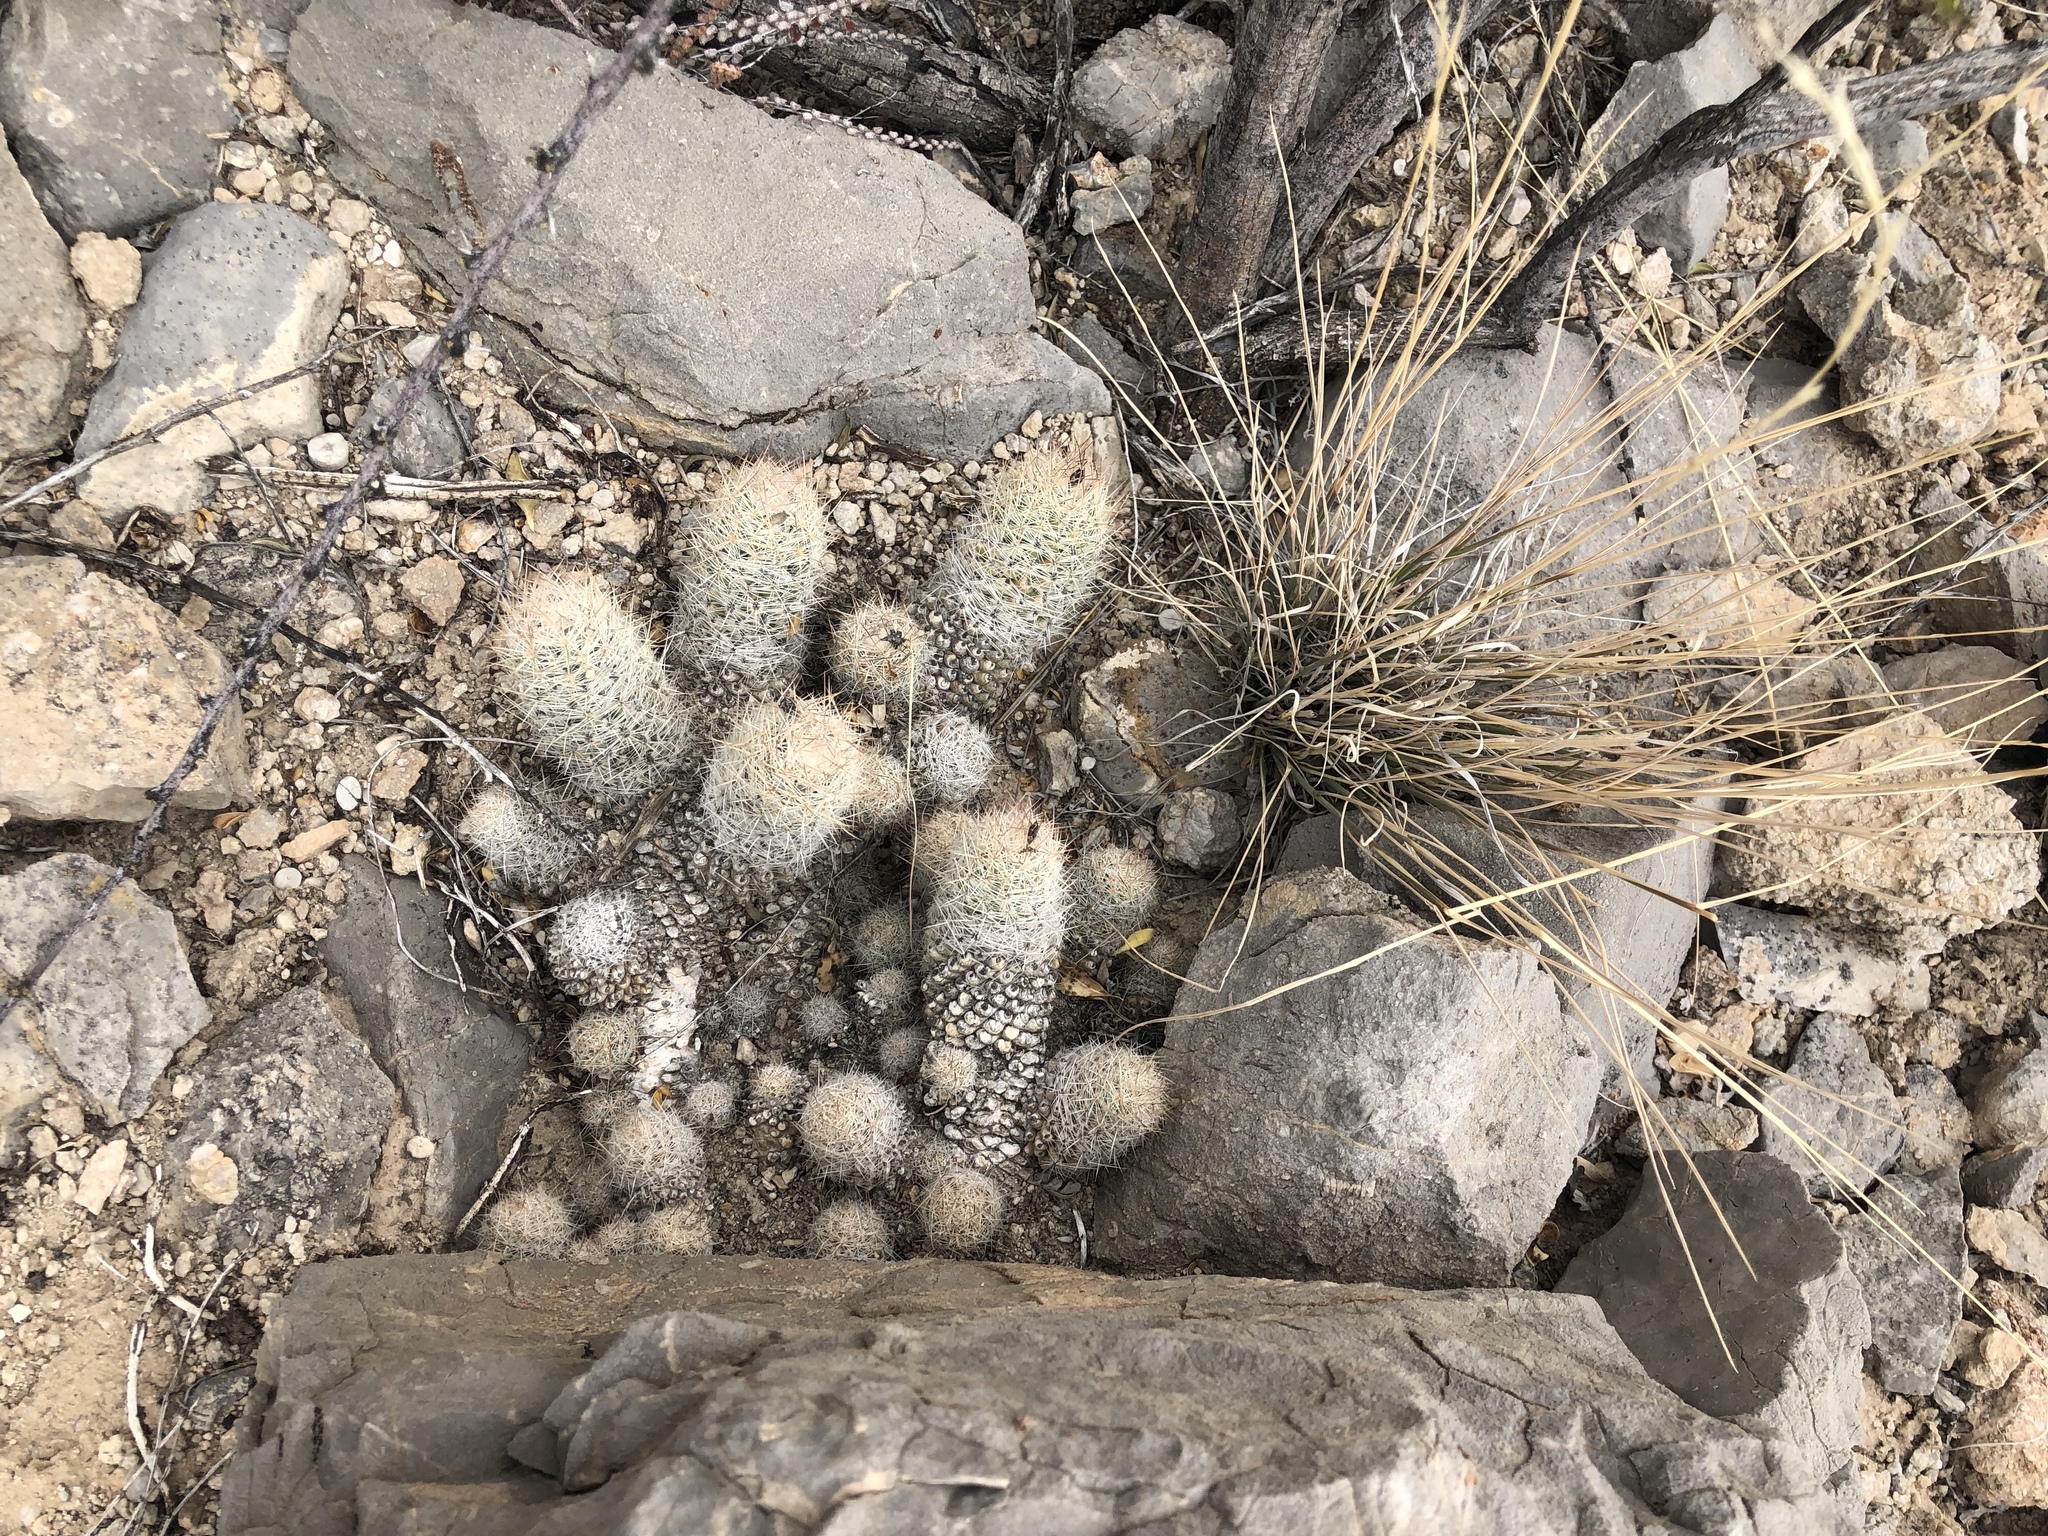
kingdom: Plantae
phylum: Tracheophyta
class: Magnoliopsida
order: Caryophyllales
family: Cactaceae
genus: Pelecyphora
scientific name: Pelecyphora tuberculosa
